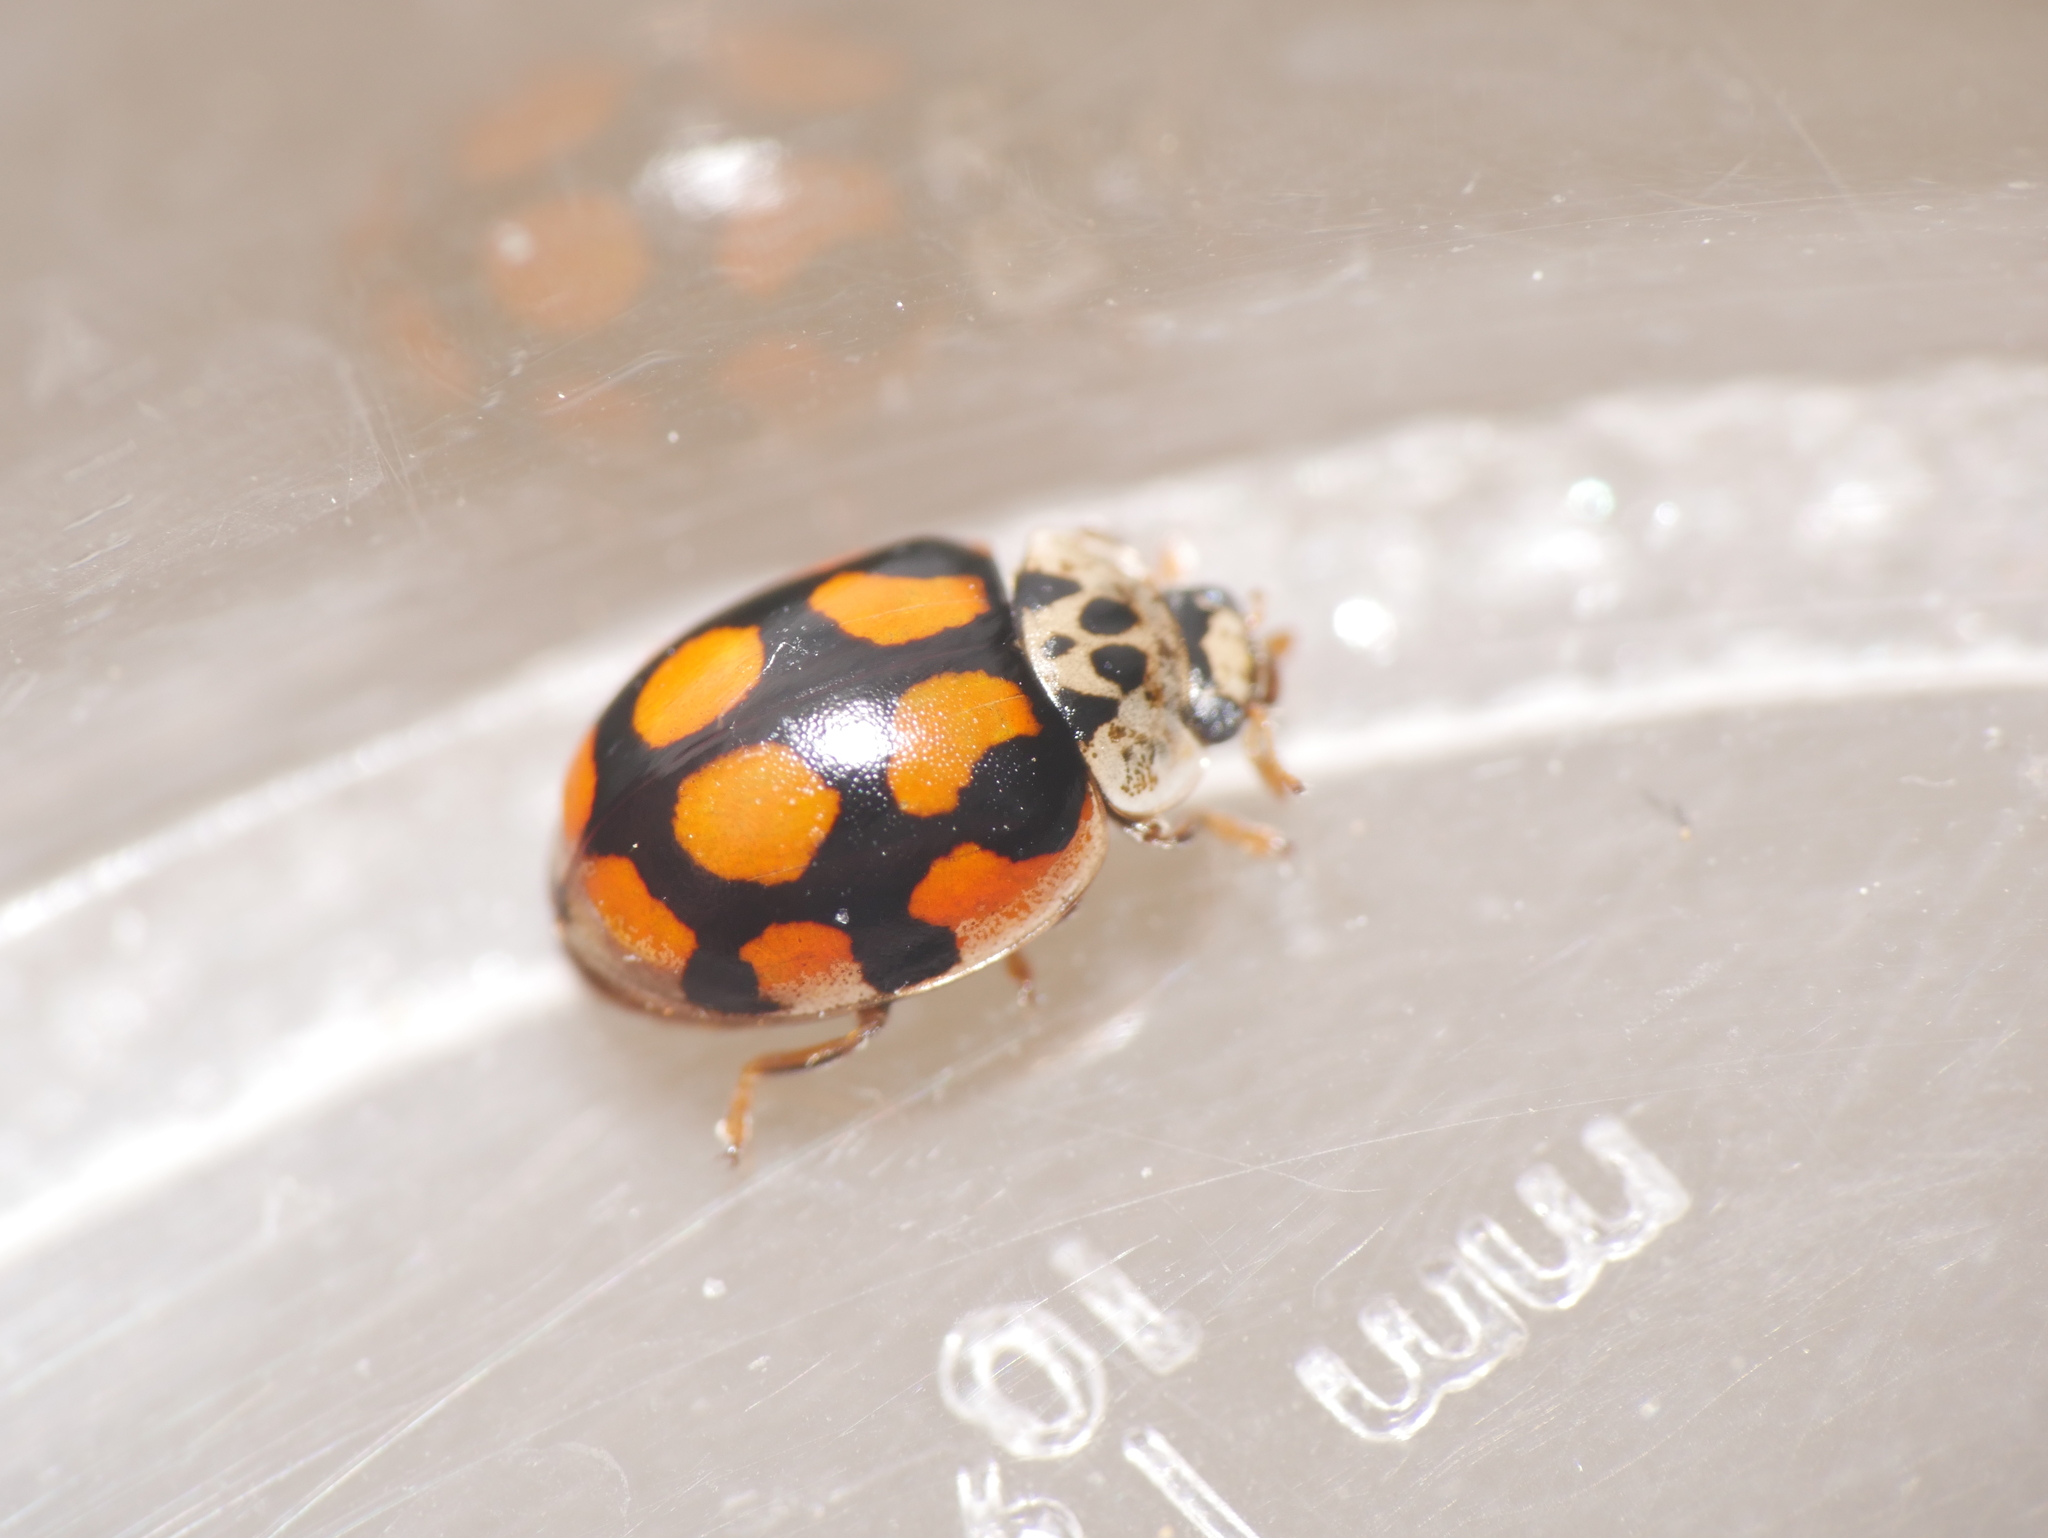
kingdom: Animalia
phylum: Arthropoda
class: Insecta
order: Coleoptera
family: Coccinellidae
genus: Adalia
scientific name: Adalia decempunctata
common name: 10-spot ladybird
